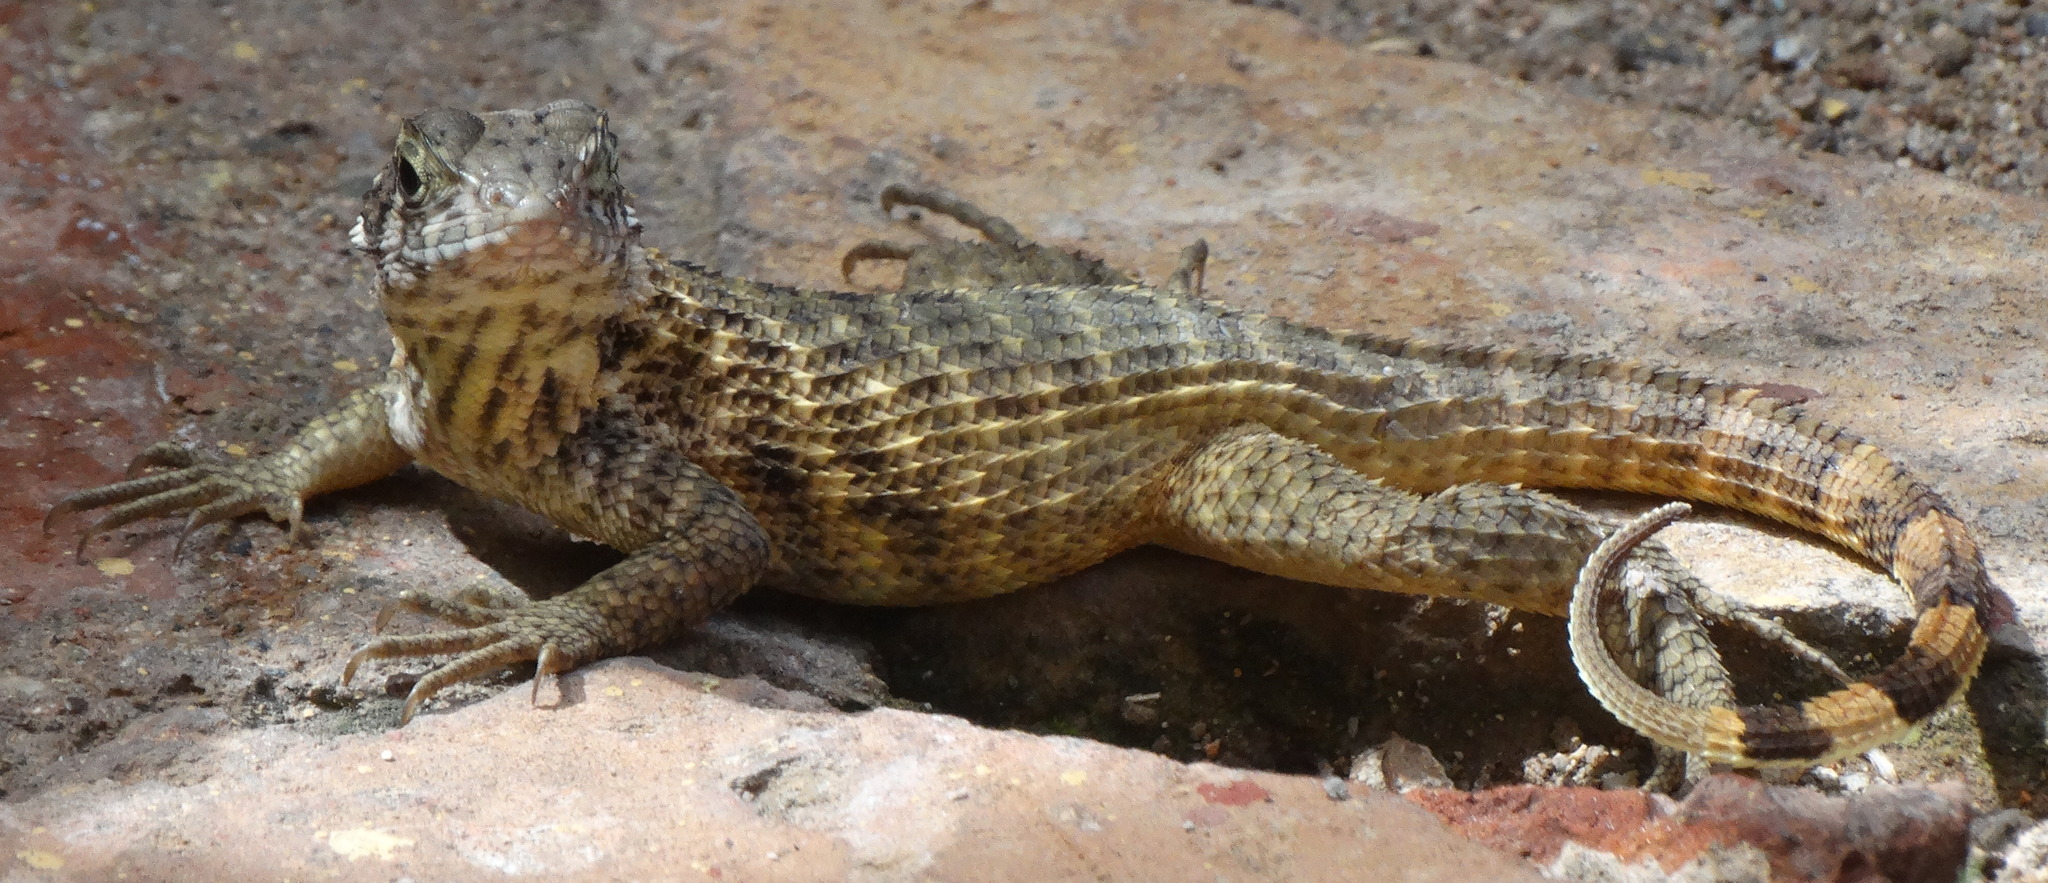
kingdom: Animalia
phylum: Chordata
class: Squamata
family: Leiocephalidae
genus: Leiocephalus
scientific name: Leiocephalus
